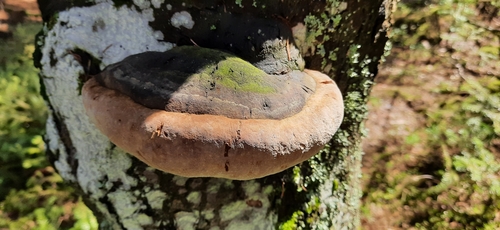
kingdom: Fungi
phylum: Basidiomycota
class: Agaricomycetes
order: Hymenochaetales
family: Hymenochaetaceae
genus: Phellinus
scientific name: Phellinus hartigii
